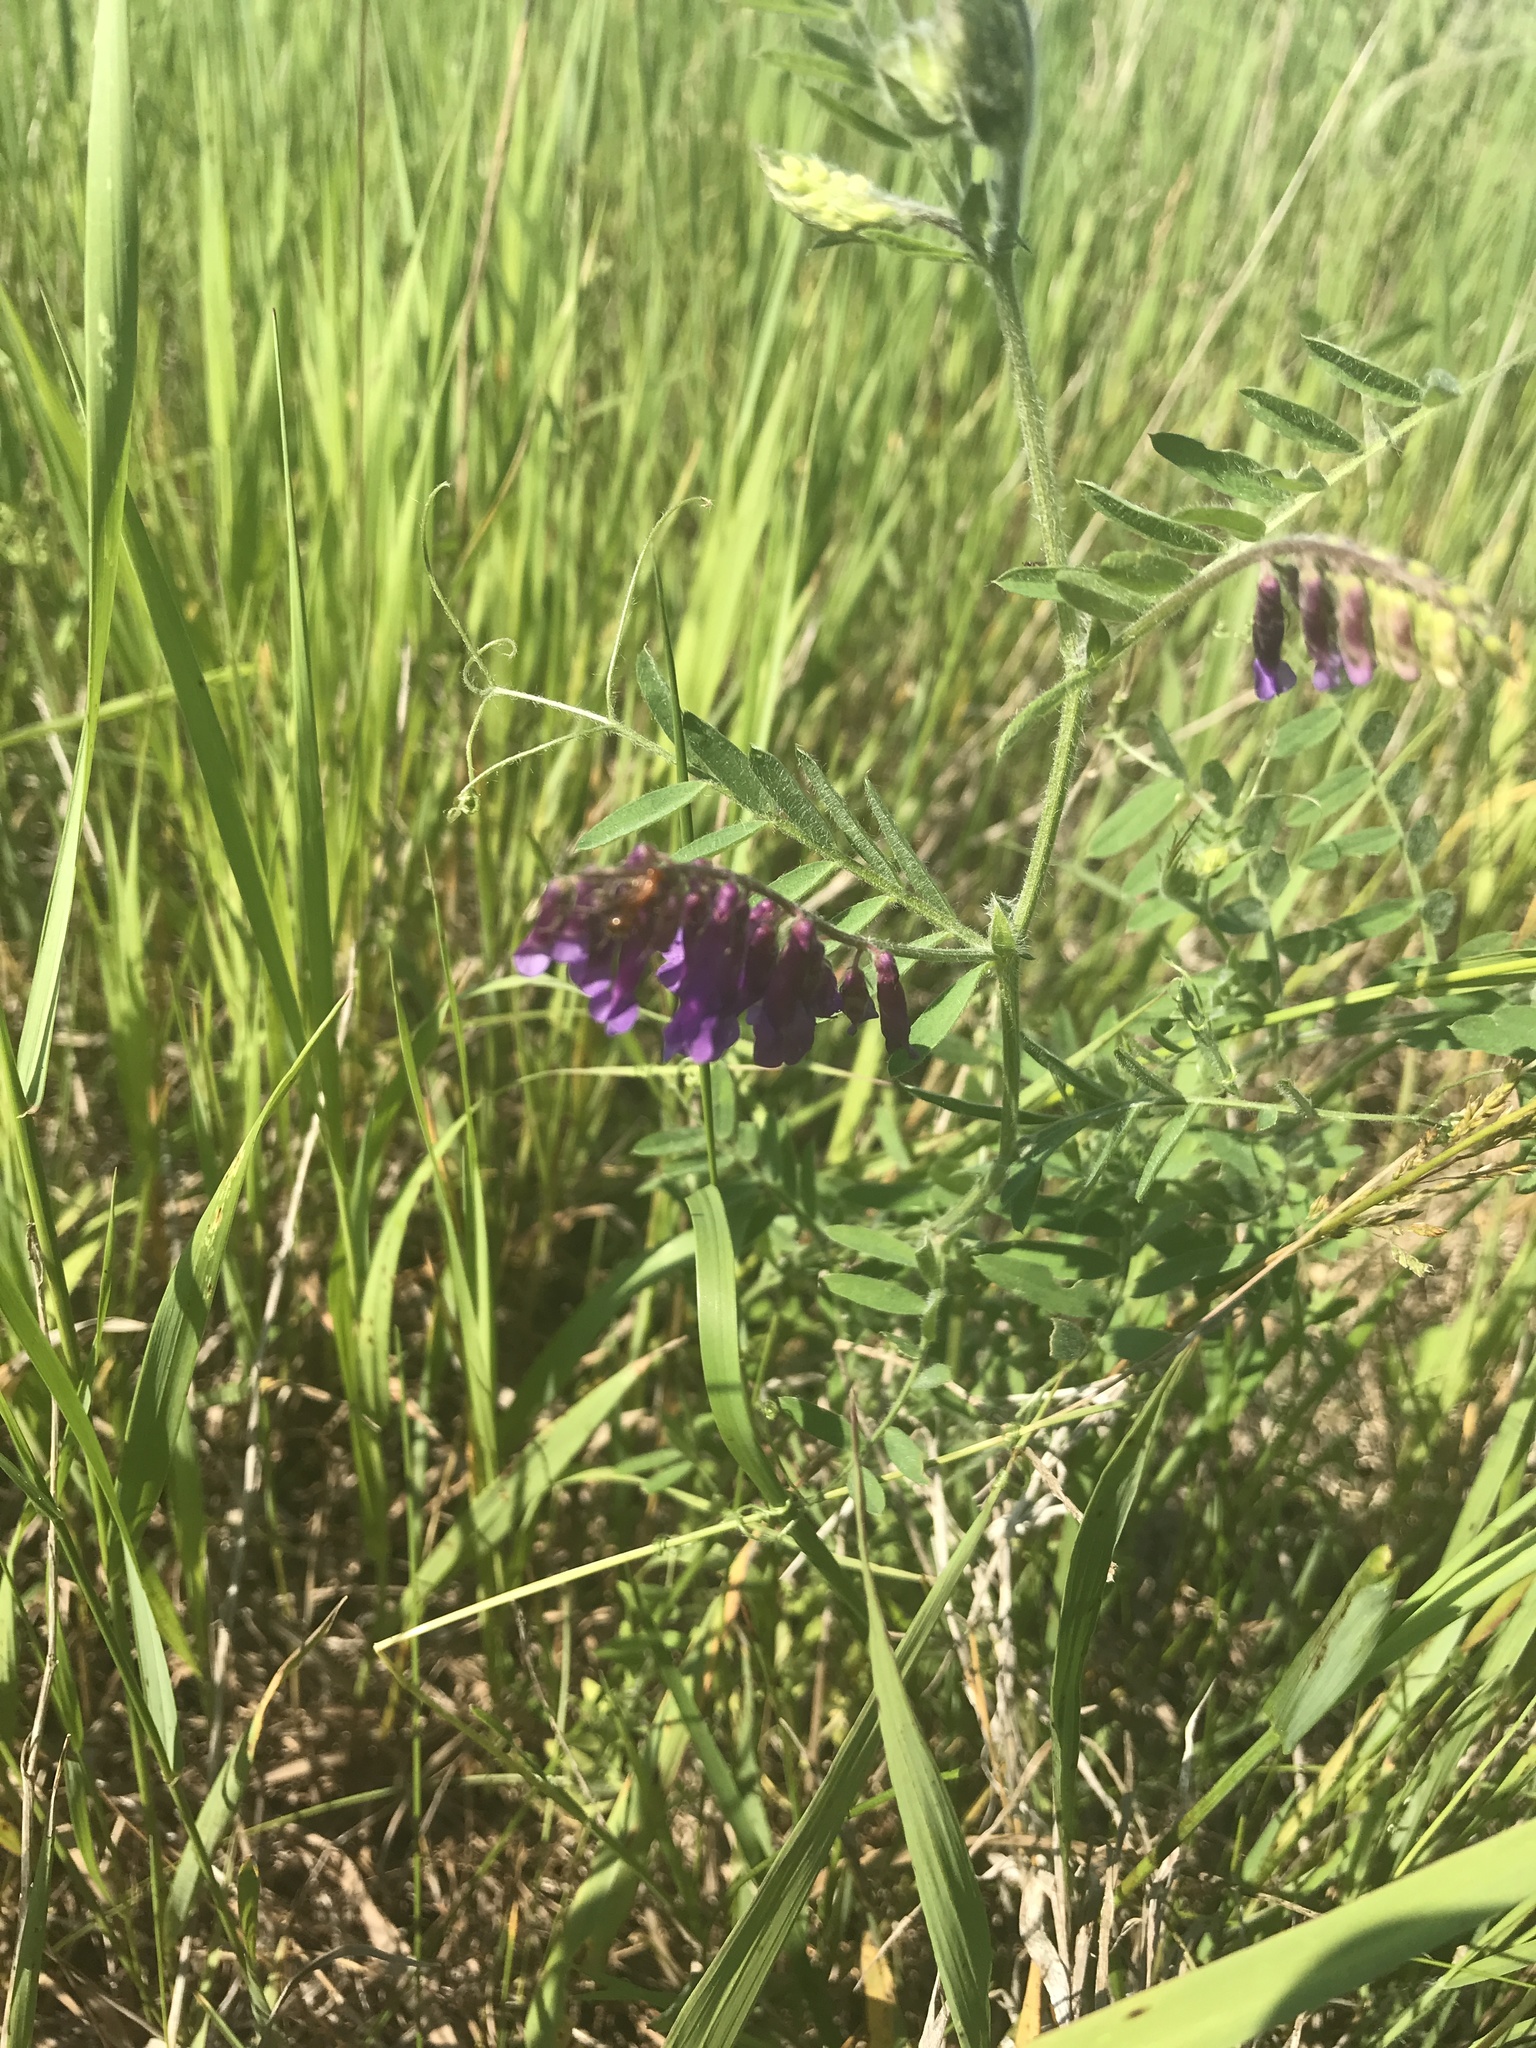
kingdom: Plantae
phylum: Tracheophyta
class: Magnoliopsida
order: Fabales
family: Fabaceae
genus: Vicia
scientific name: Vicia villosa
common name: Fodder vetch
